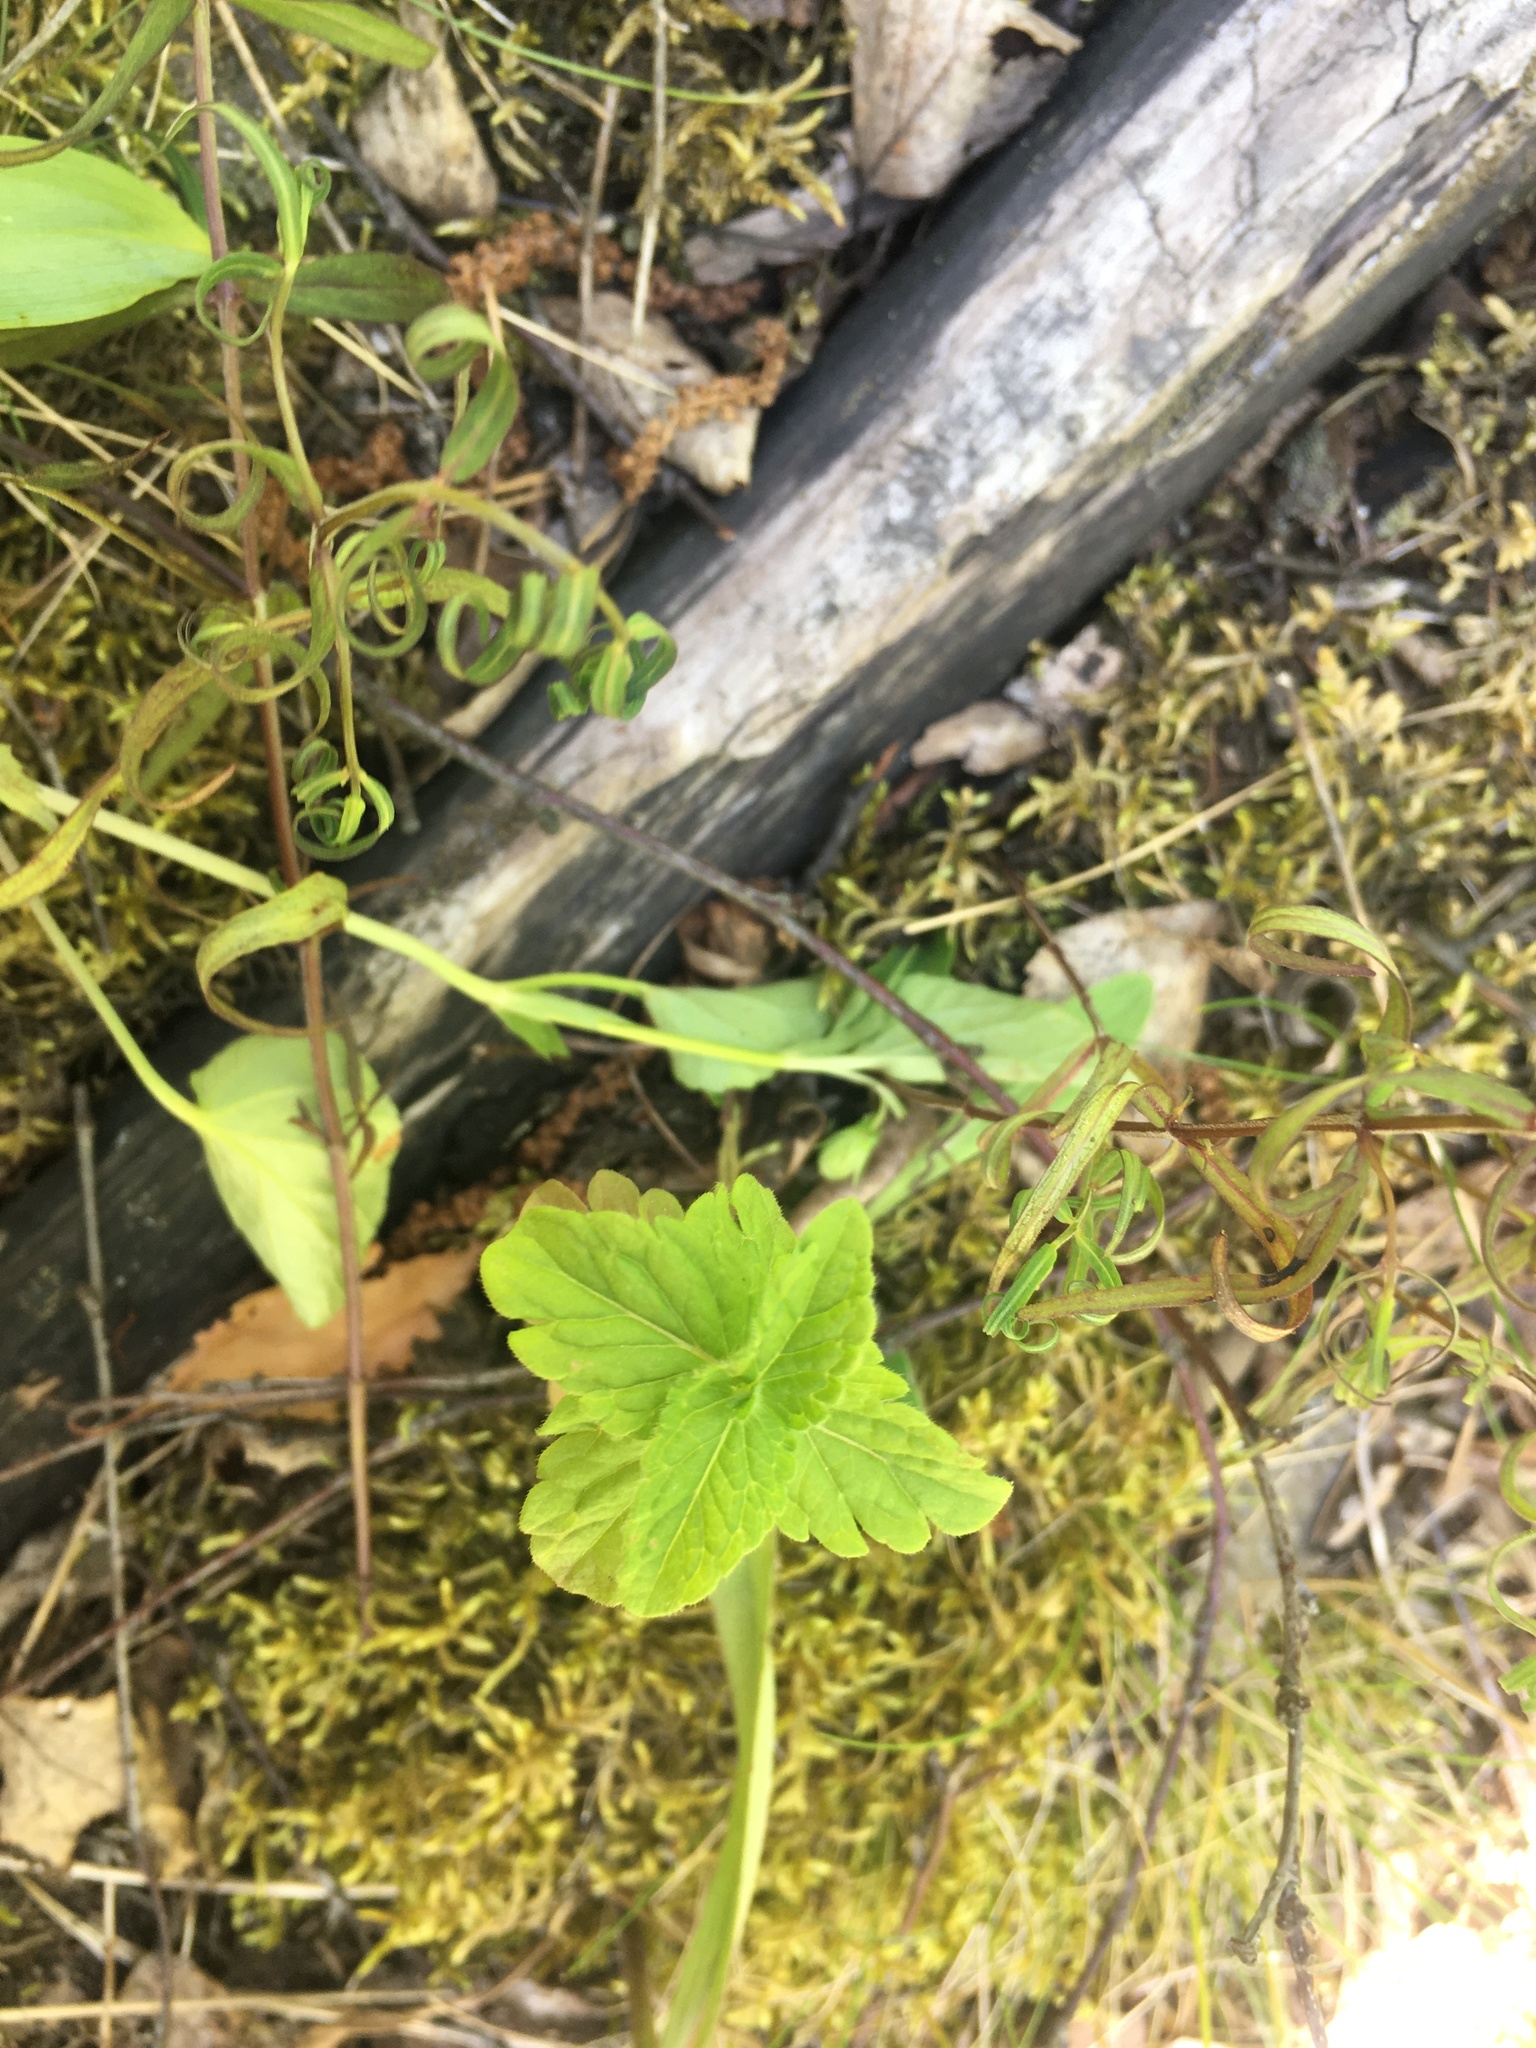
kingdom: Plantae
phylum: Tracheophyta
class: Magnoliopsida
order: Lamiales
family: Plantaginaceae
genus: Veronica
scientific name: Veronica chamaedrys
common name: Germander speedwell
